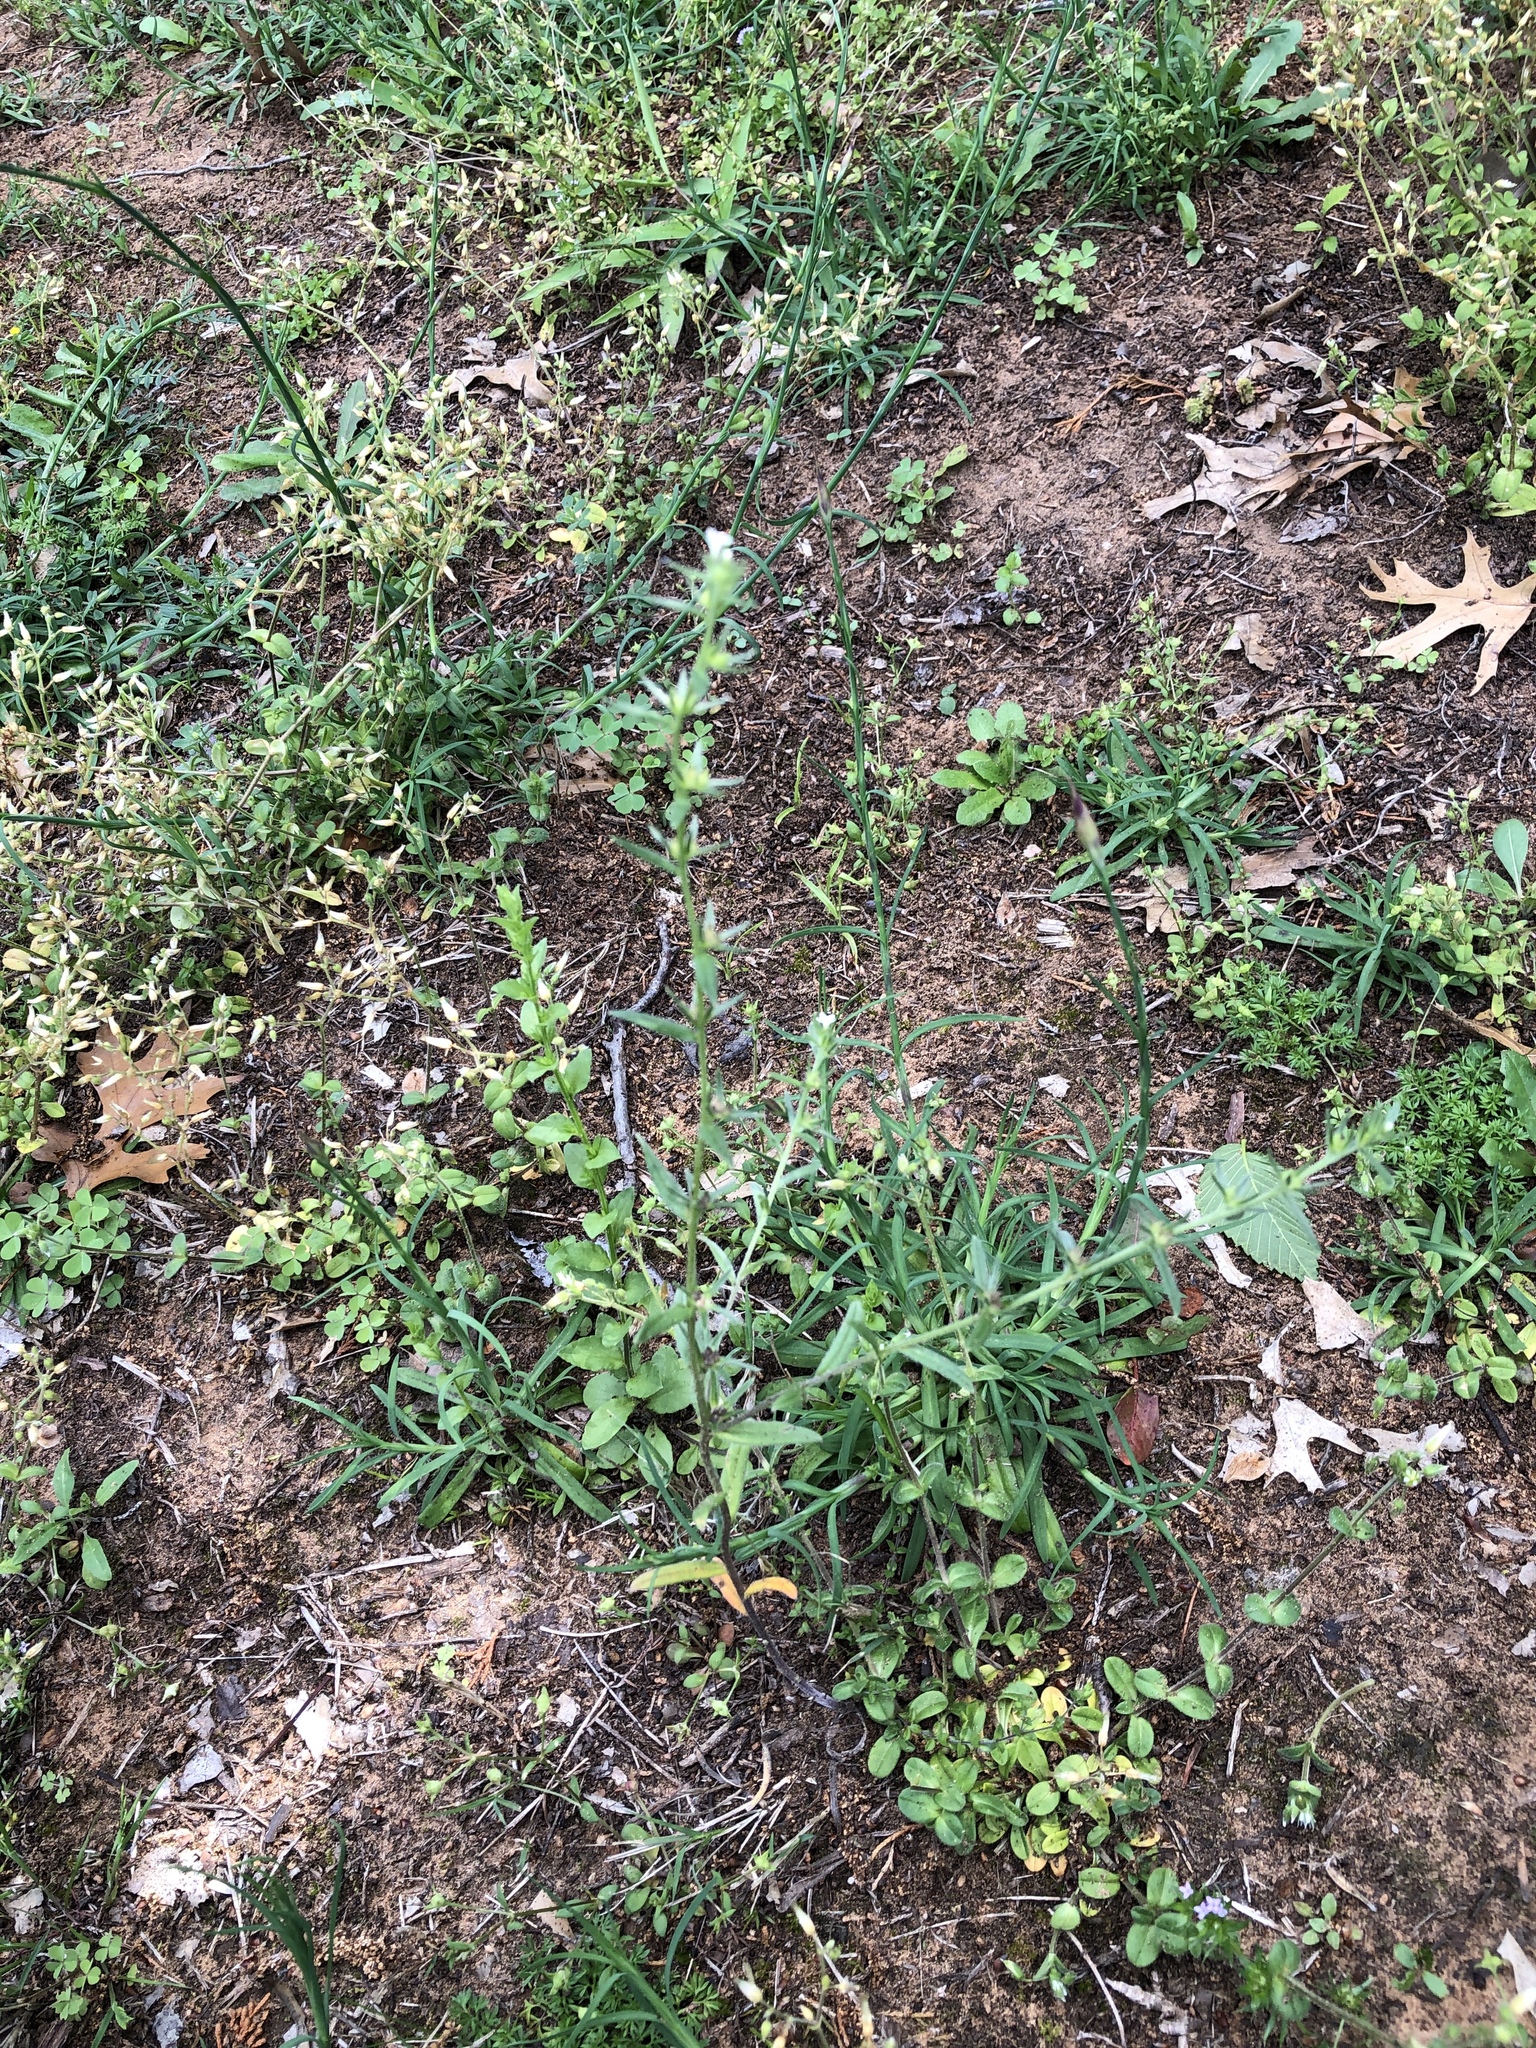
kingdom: Plantae
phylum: Tracheophyta
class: Magnoliopsida
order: Boraginales
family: Boraginaceae
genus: Buglossoides
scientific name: Buglossoides arvensis
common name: Corn gromwell
